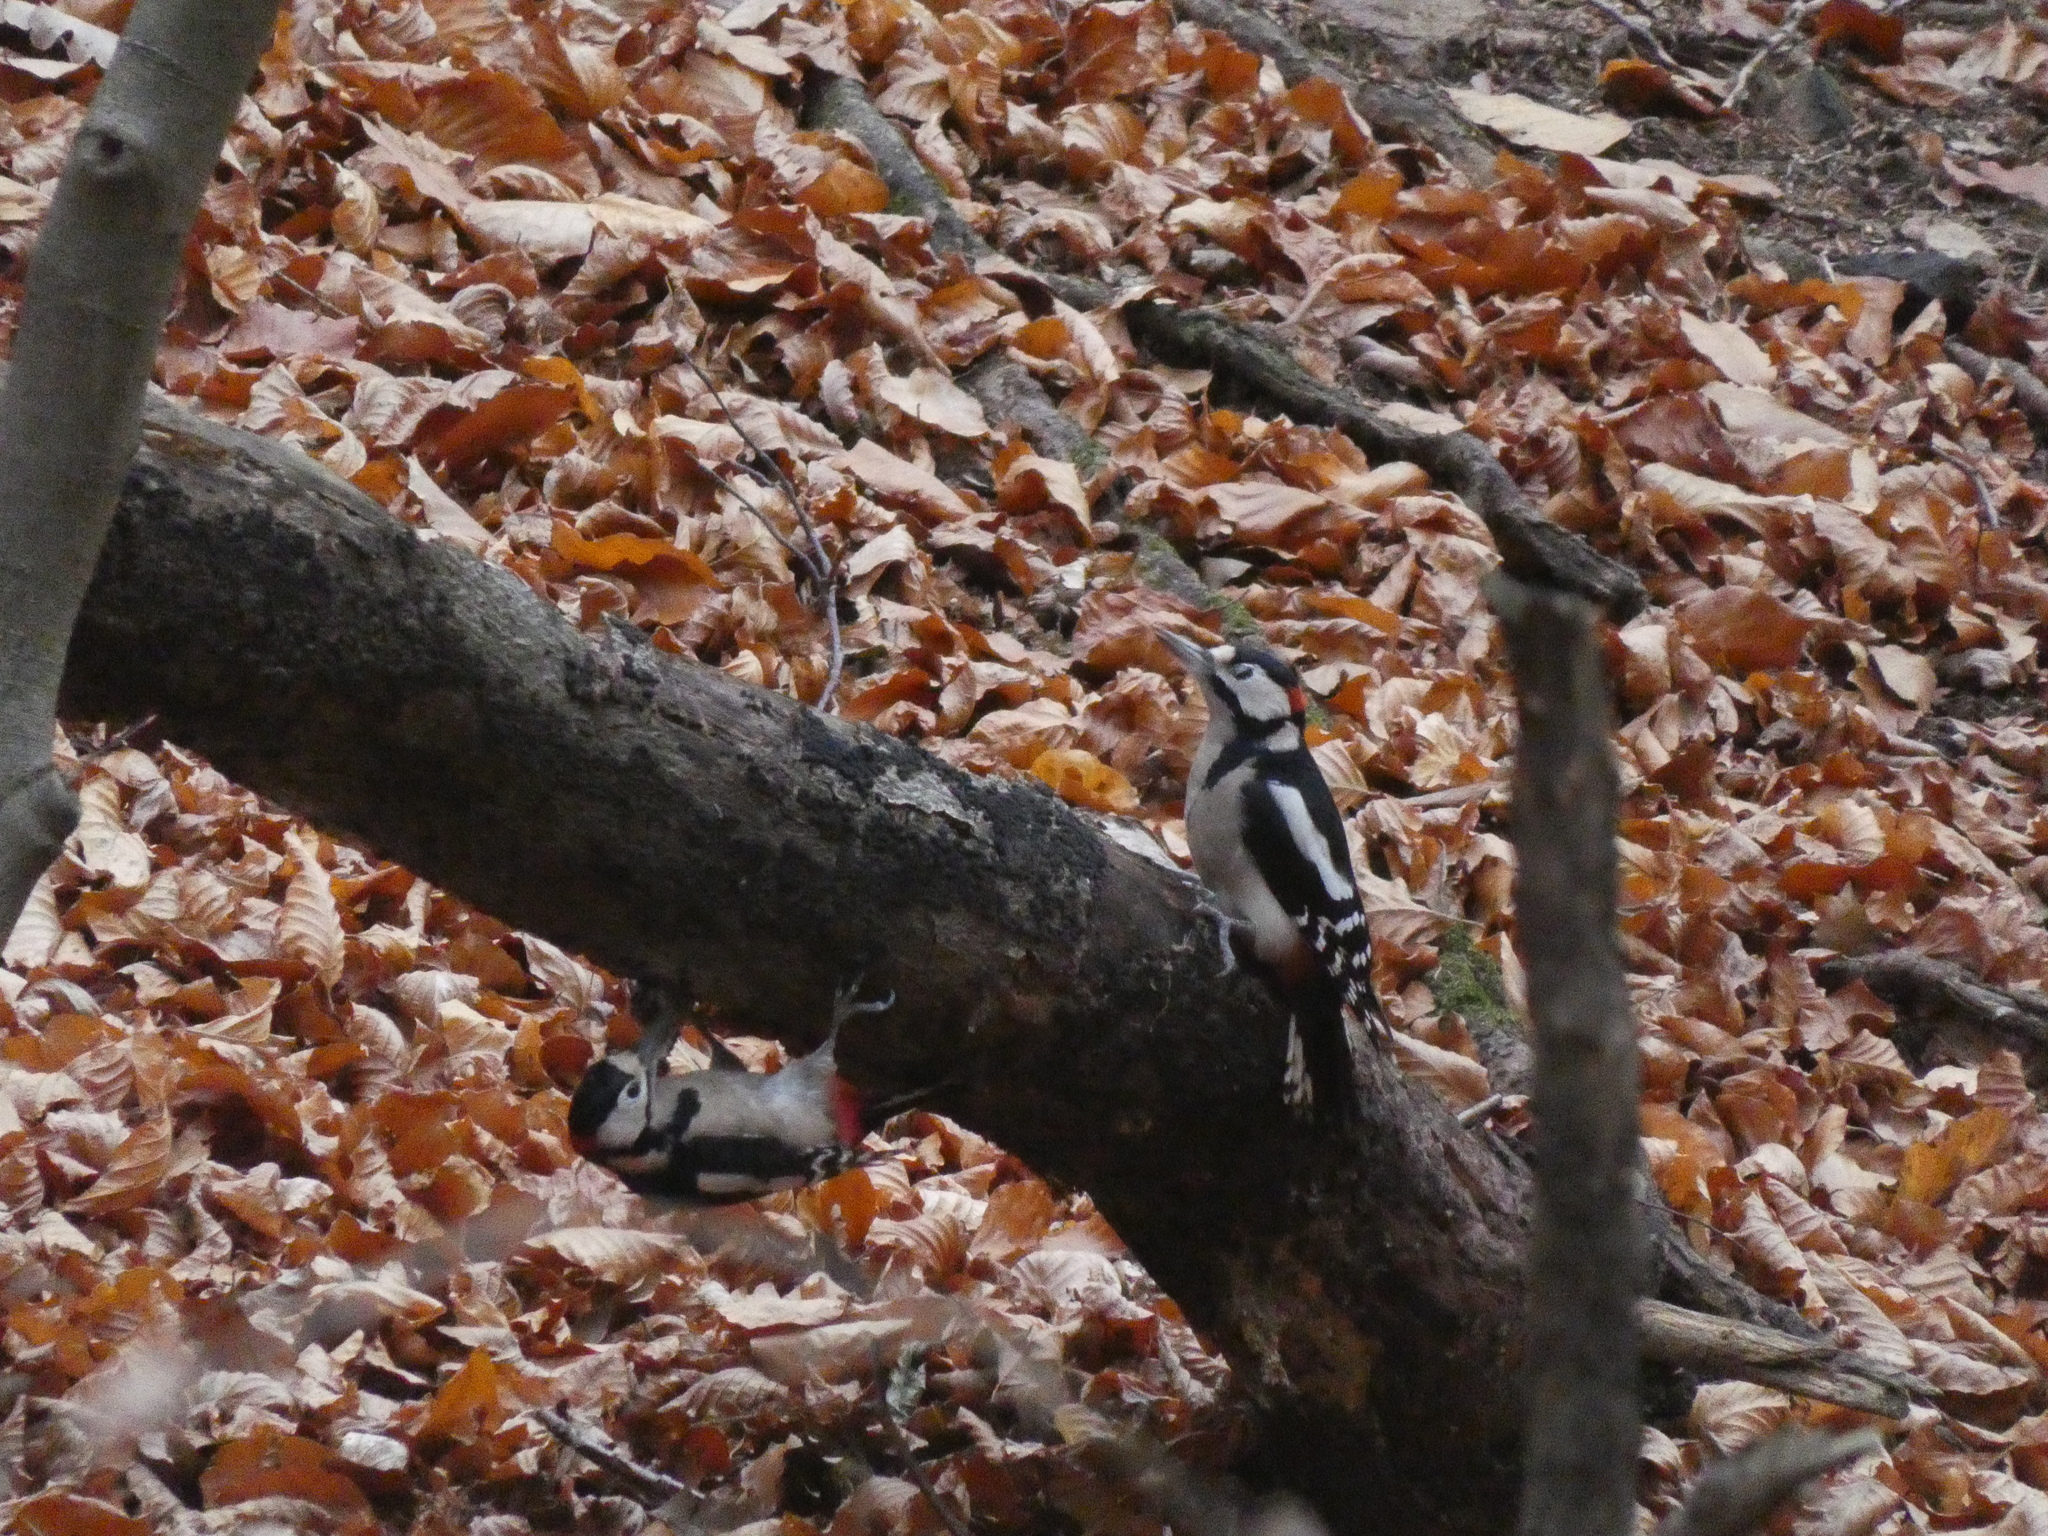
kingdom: Animalia
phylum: Chordata
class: Aves
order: Piciformes
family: Picidae
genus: Dendrocopos
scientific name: Dendrocopos major
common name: Great spotted woodpecker
